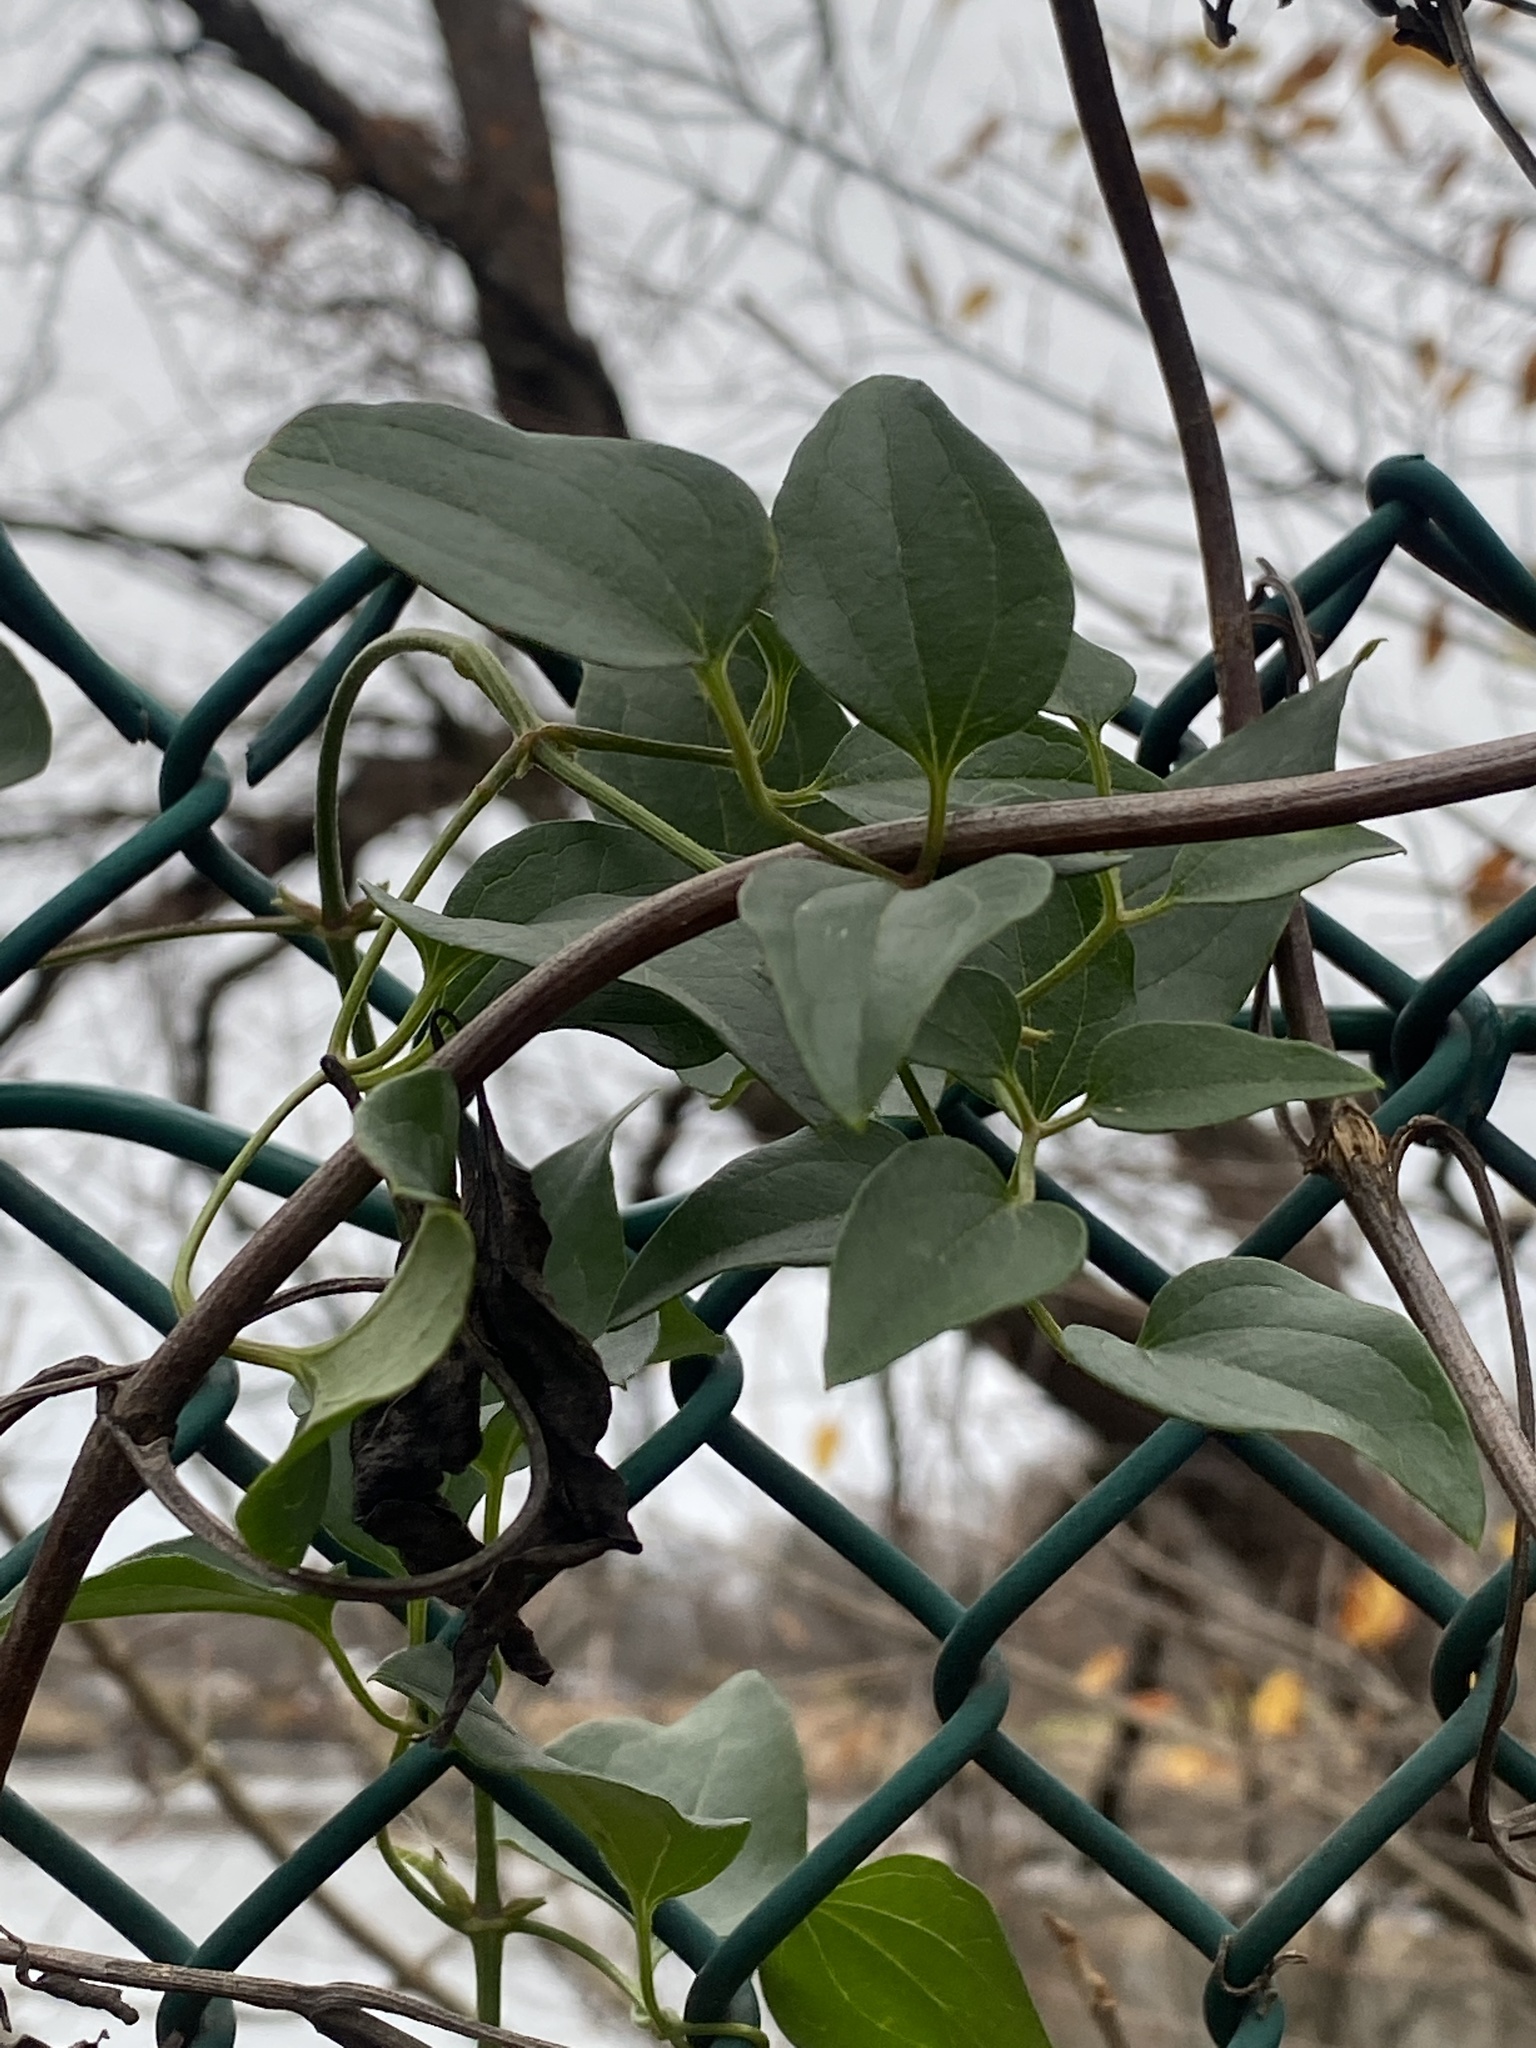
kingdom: Plantae
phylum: Tracheophyta
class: Magnoliopsida
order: Ranunculales
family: Ranunculaceae
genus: Clematis
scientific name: Clematis terniflora
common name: Sweet autumn clematis
